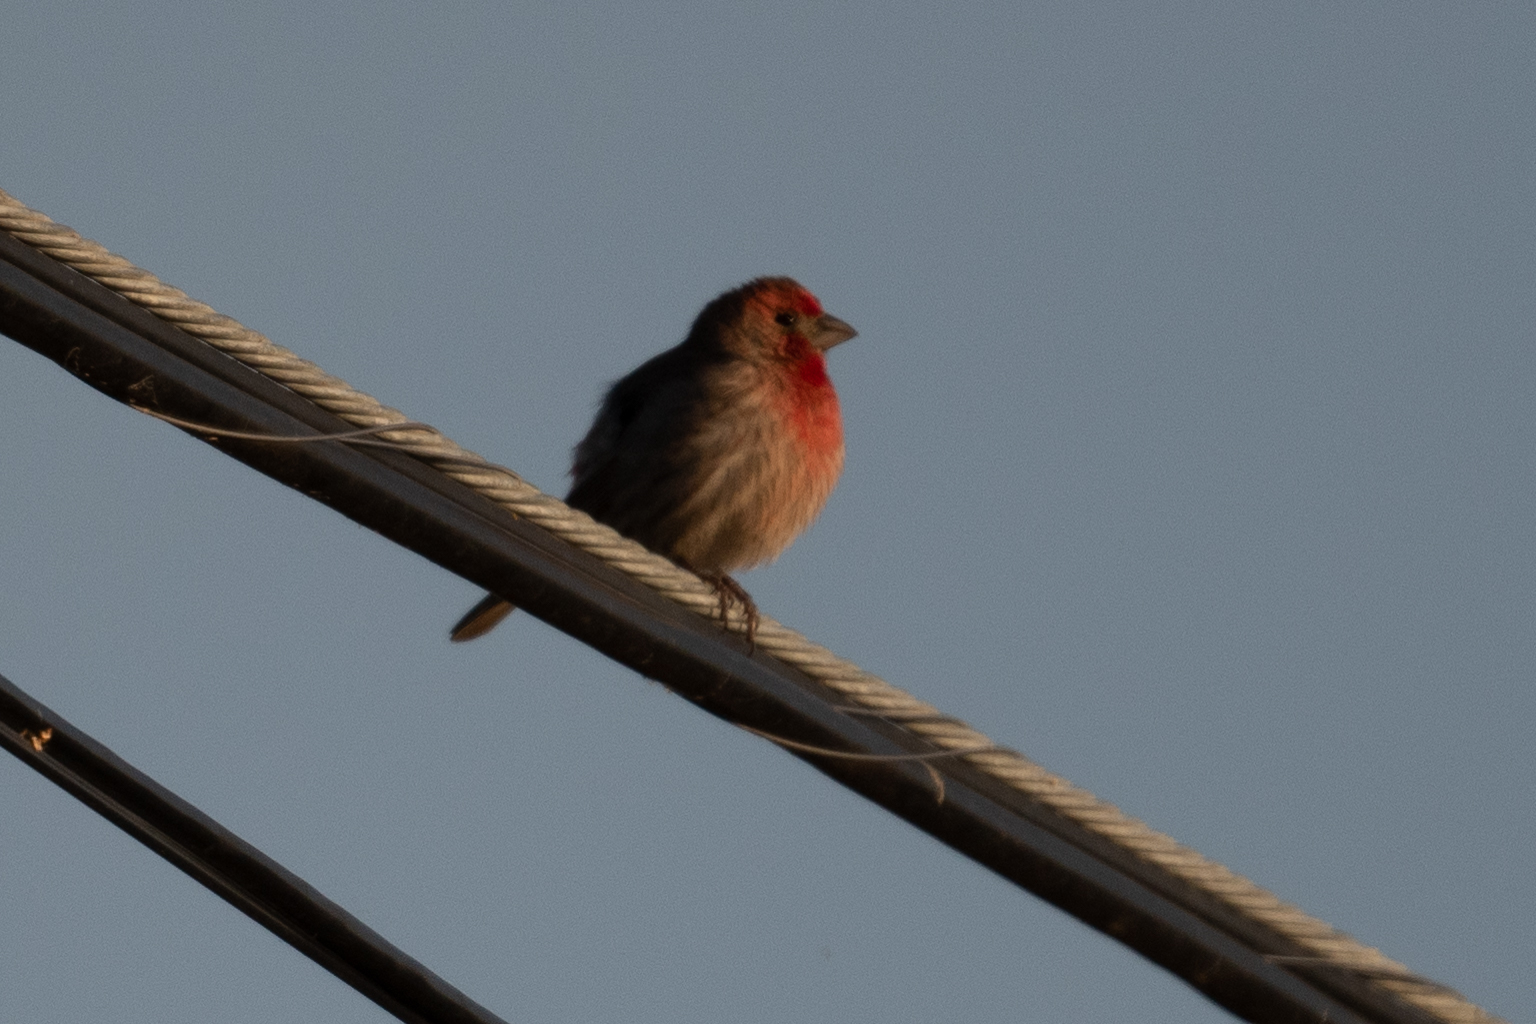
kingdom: Animalia
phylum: Chordata
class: Aves
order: Passeriformes
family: Fringillidae
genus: Haemorhous
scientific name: Haemorhous mexicanus
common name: House finch
